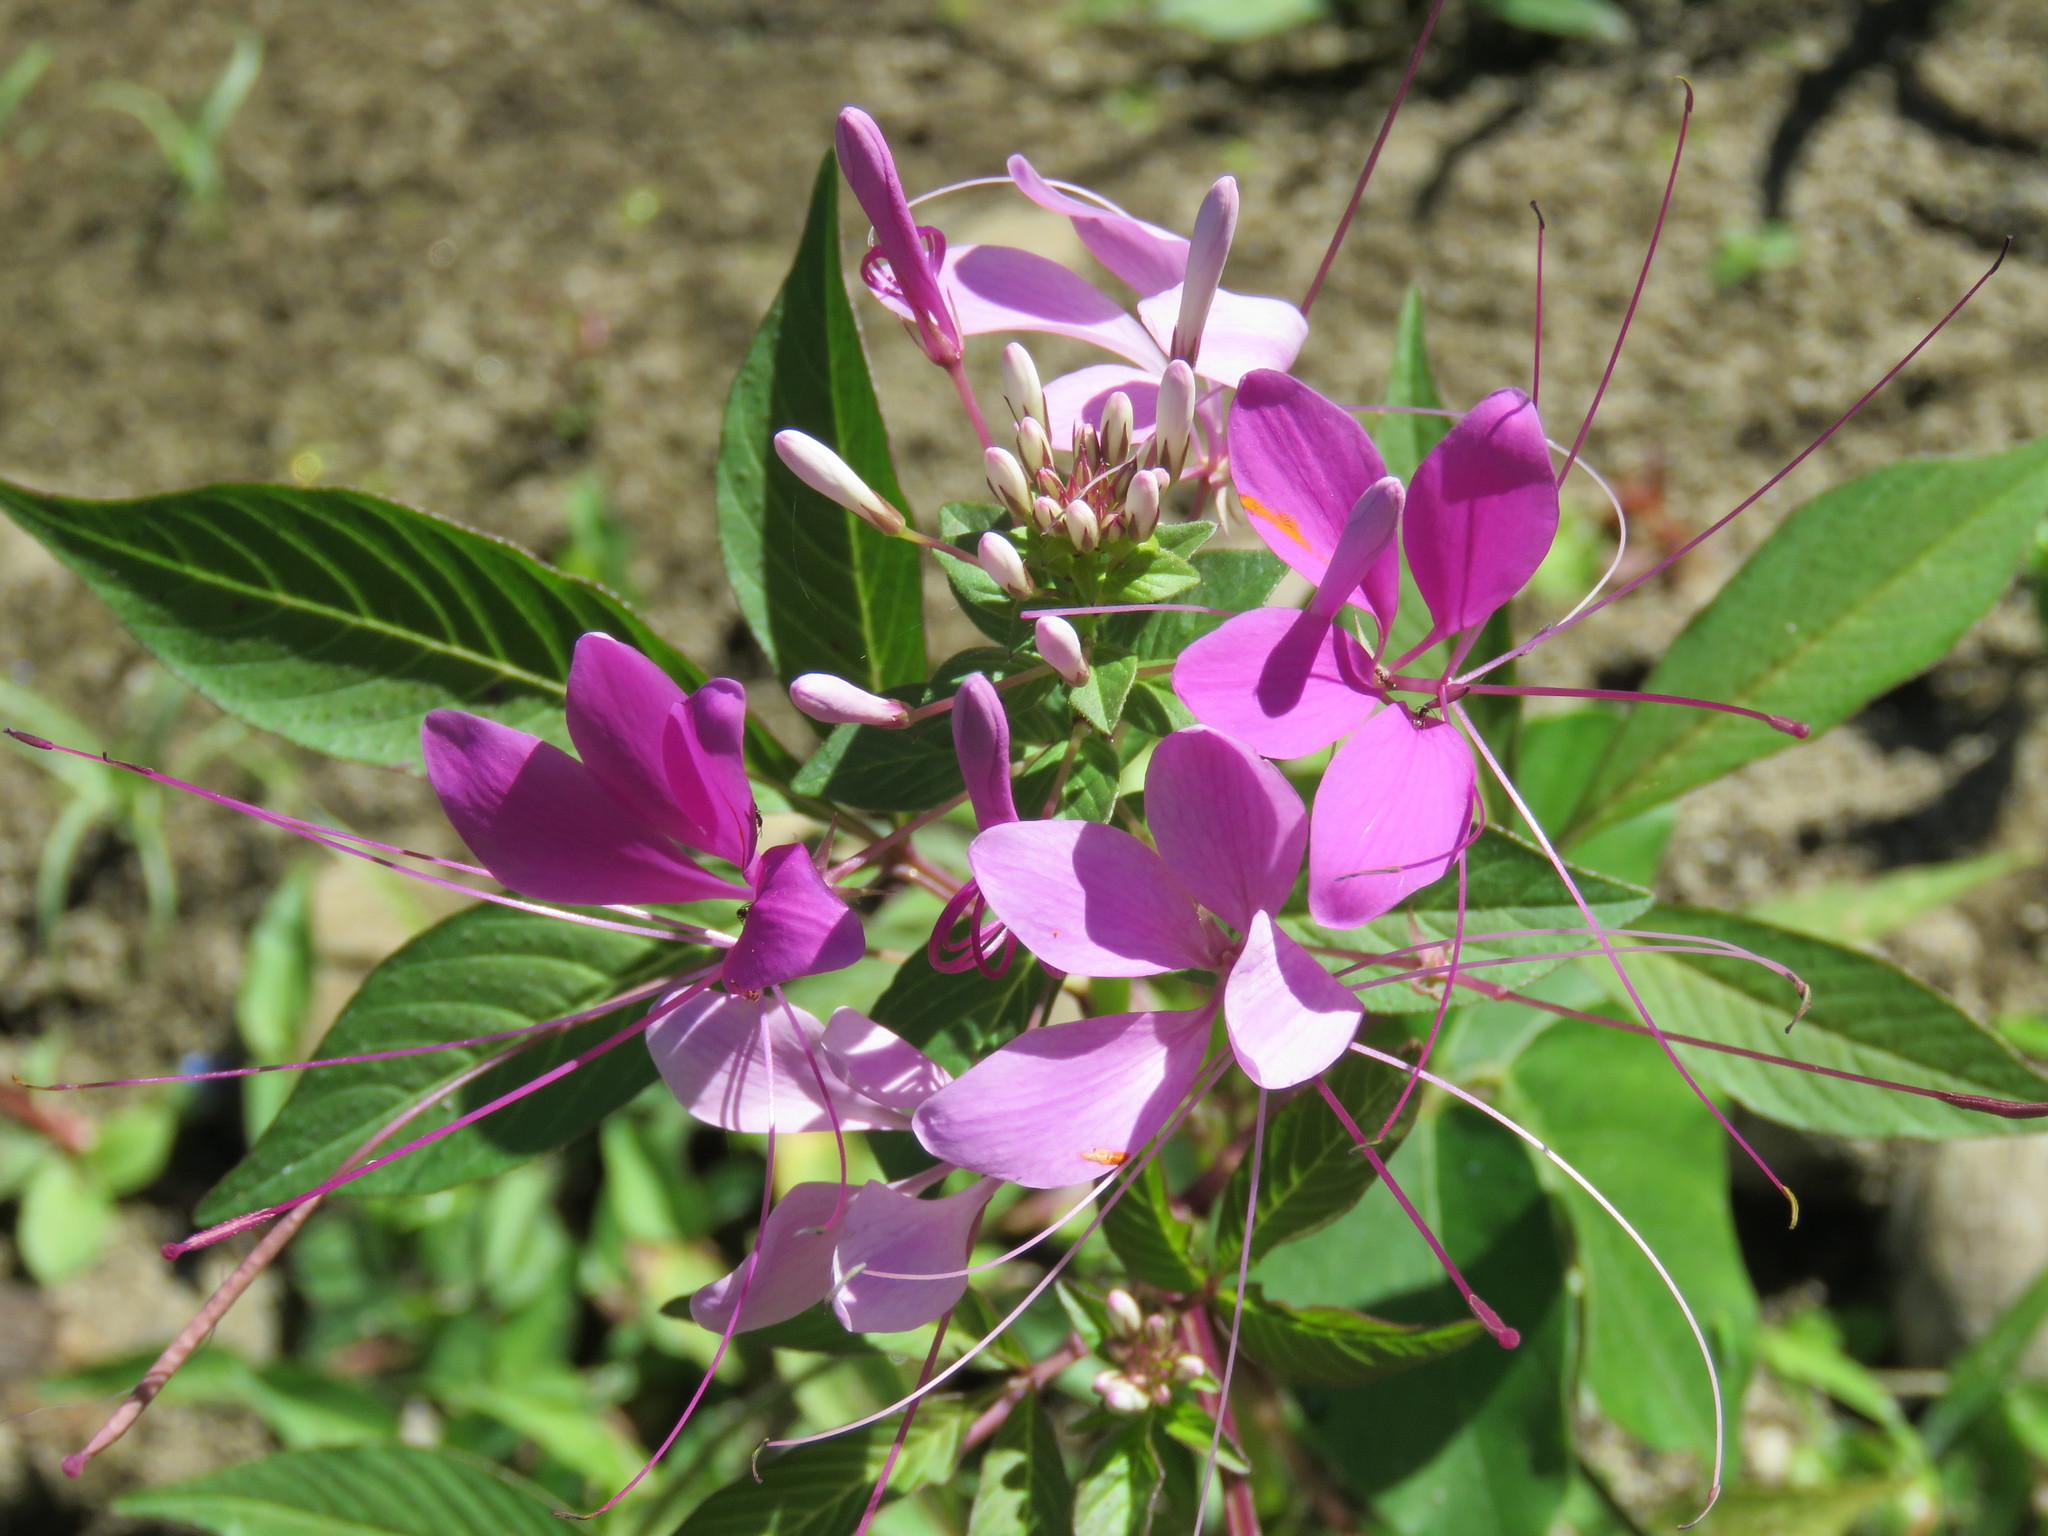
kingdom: Plantae
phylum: Tracheophyta
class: Magnoliopsida
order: Brassicales
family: Cleomaceae
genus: Cleoserrata
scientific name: Cleoserrata speciosa
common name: Volantines preciosos
